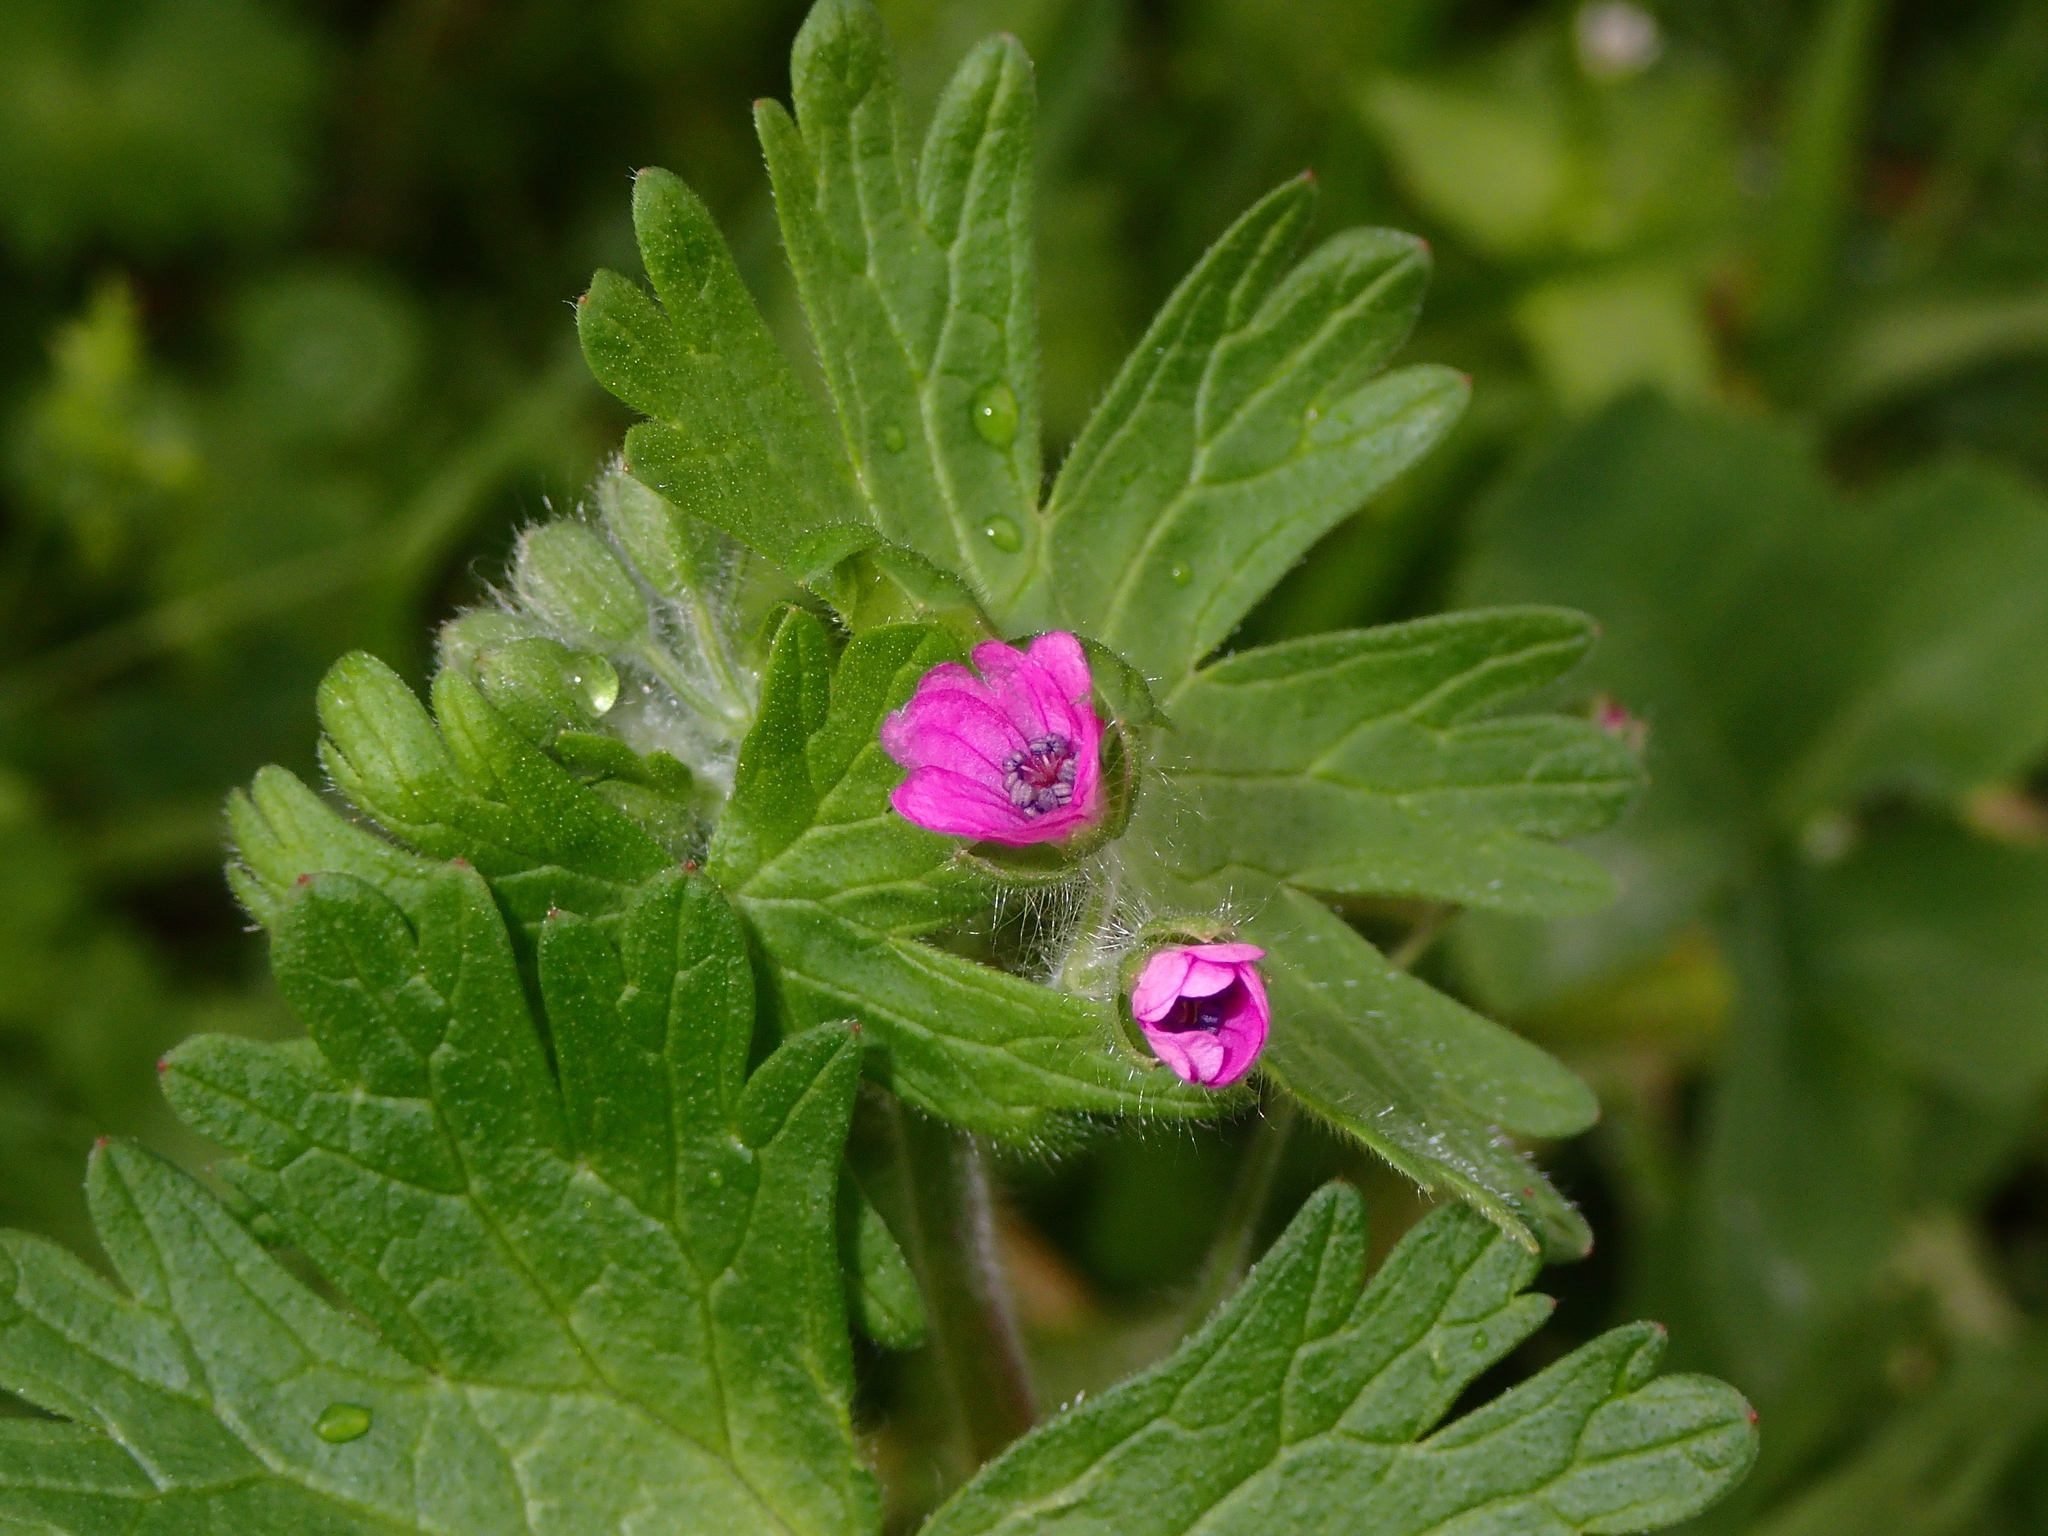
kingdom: Plantae
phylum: Tracheophyta
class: Magnoliopsida
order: Geraniales
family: Geraniaceae
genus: Geranium
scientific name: Geranium molle
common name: Dove's-foot crane's-bill
